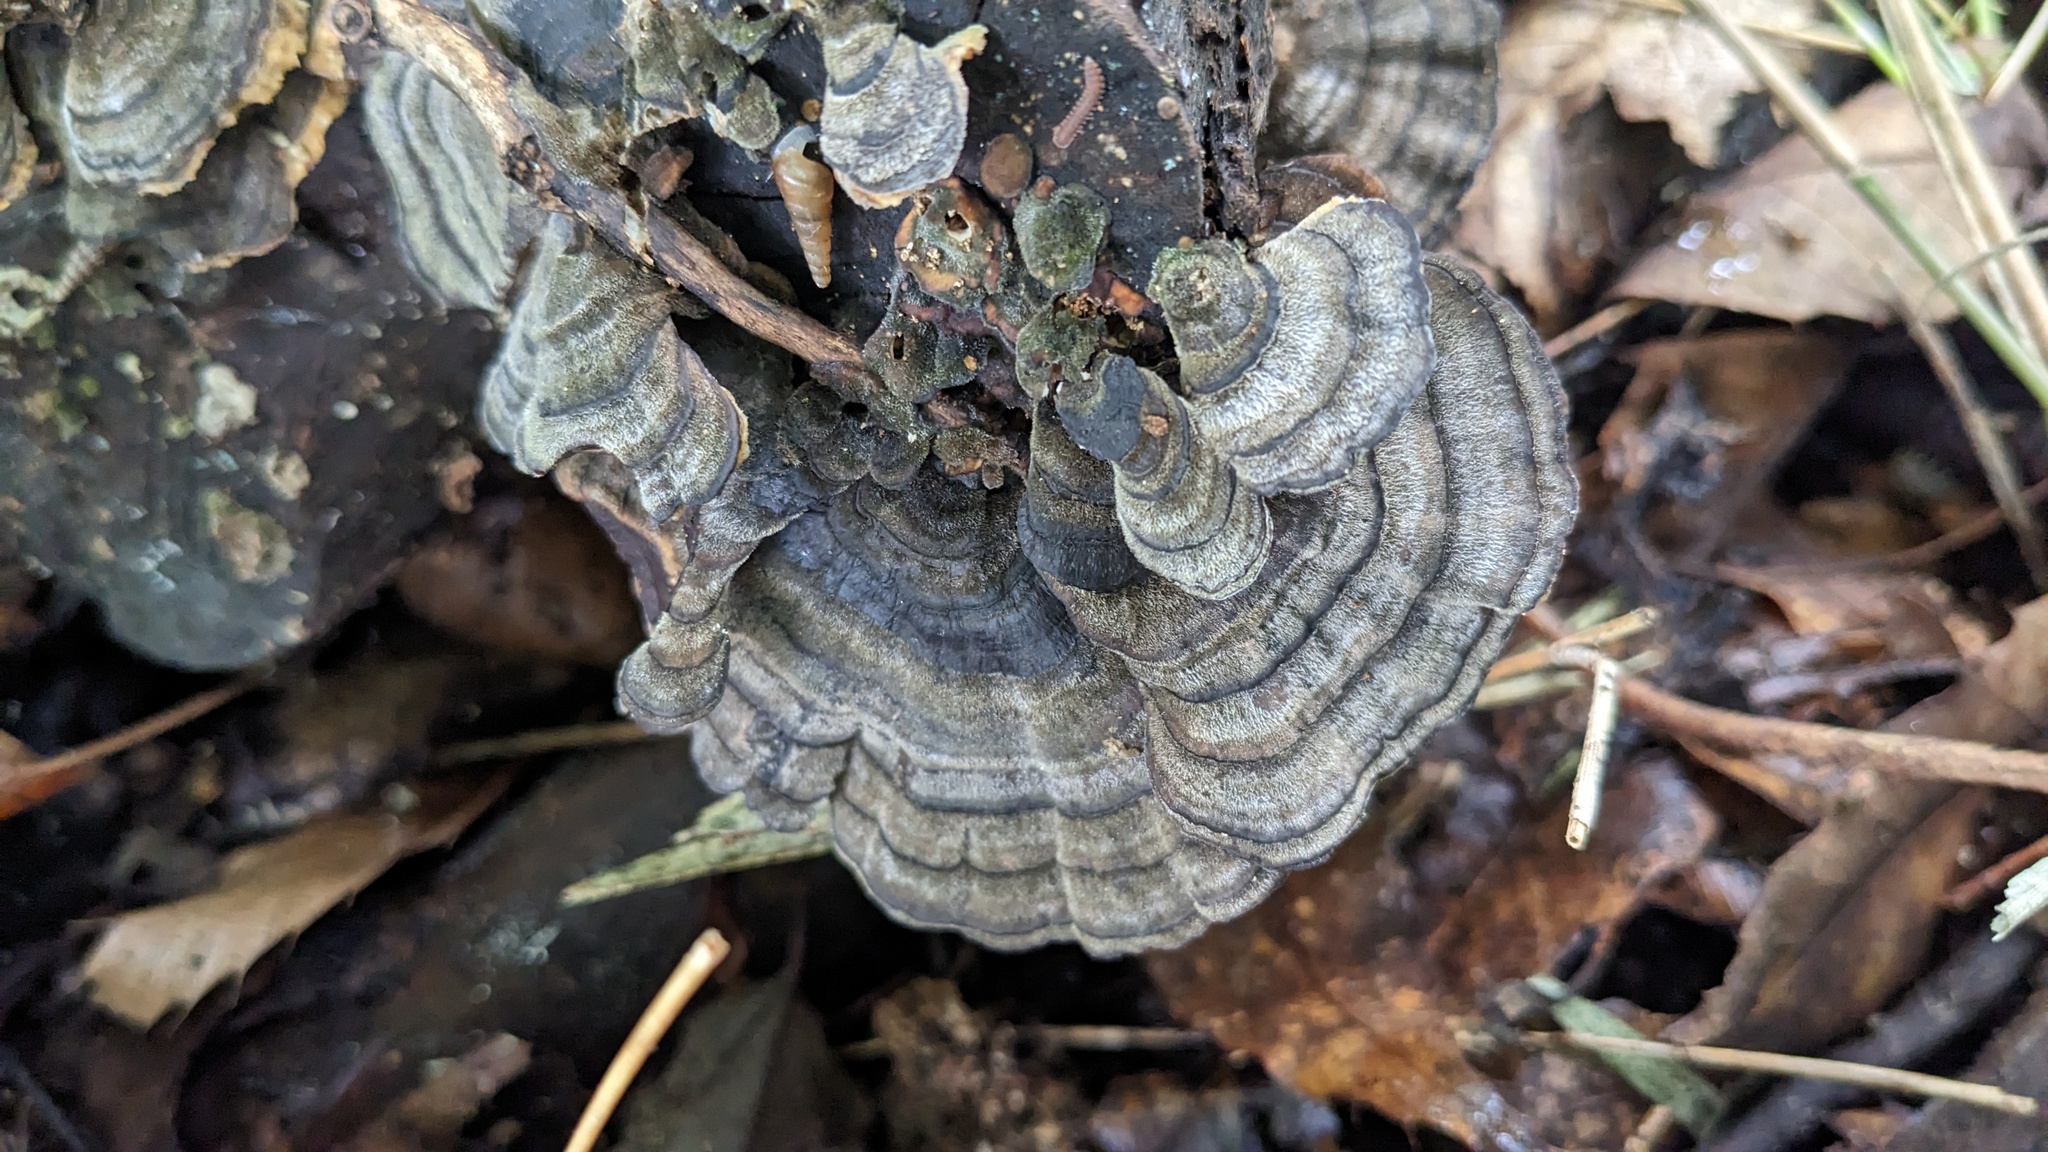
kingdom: Fungi
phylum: Basidiomycota
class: Agaricomycetes
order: Polyporales
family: Polyporaceae
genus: Trametes
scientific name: Trametes versicolor
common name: Turkeytail
